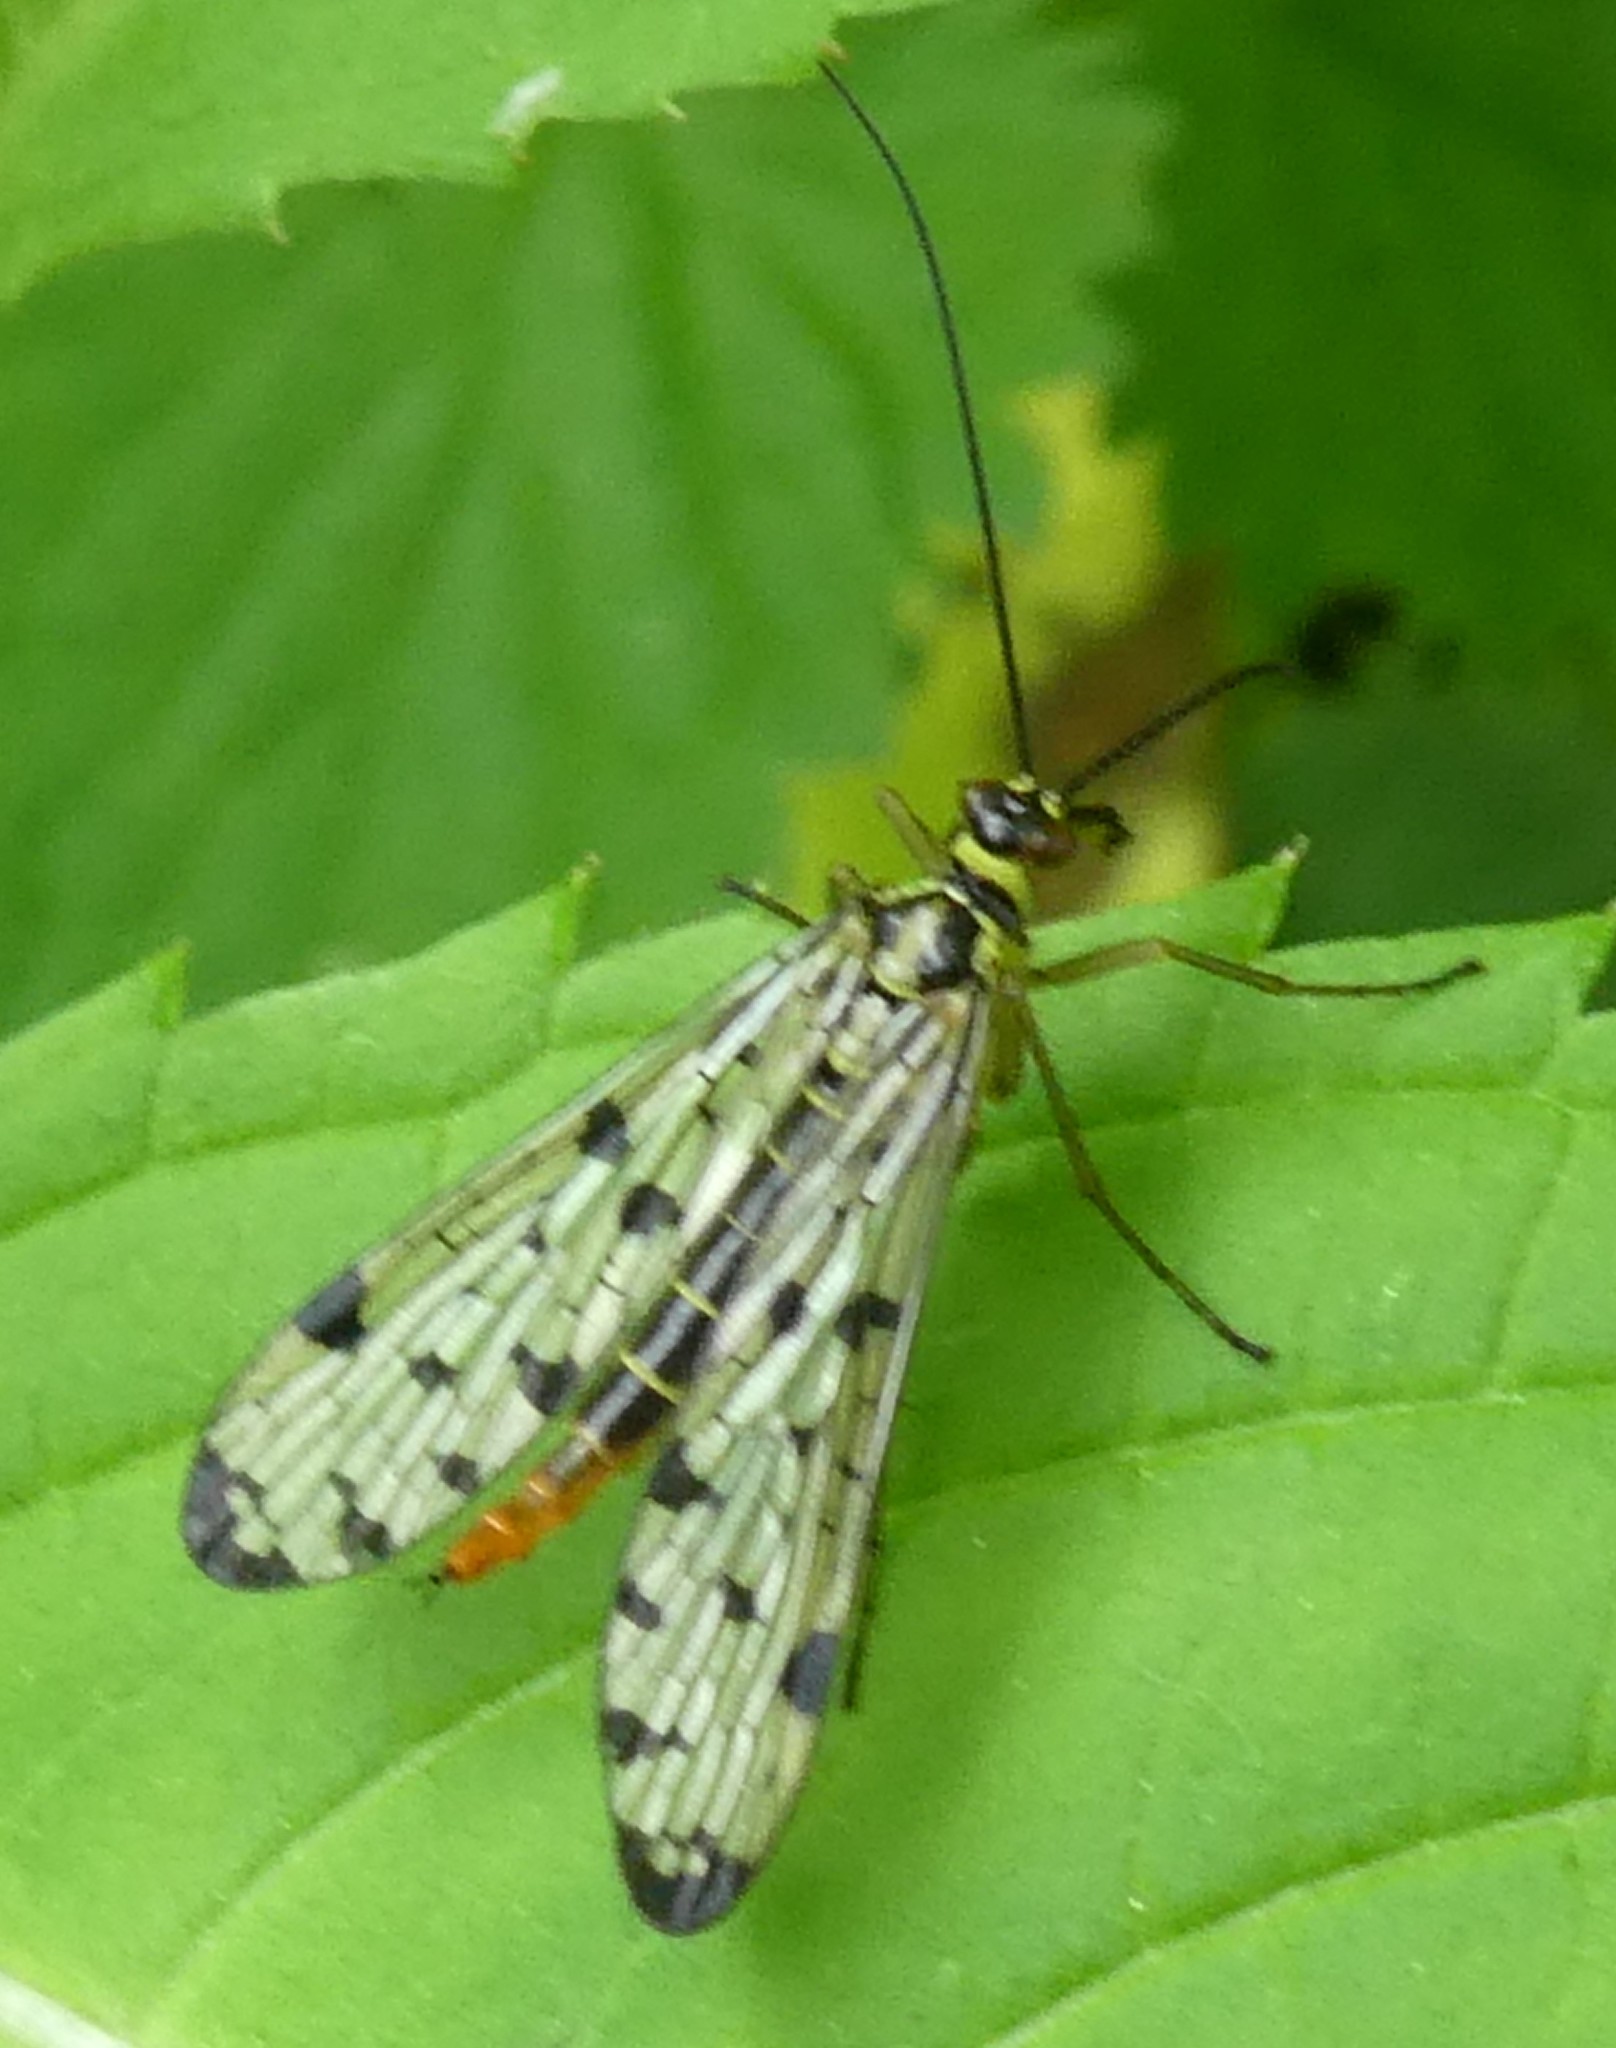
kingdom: Animalia
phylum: Arthropoda
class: Insecta
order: Mecoptera
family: Panorpidae
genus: Panorpa
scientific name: Panorpa
